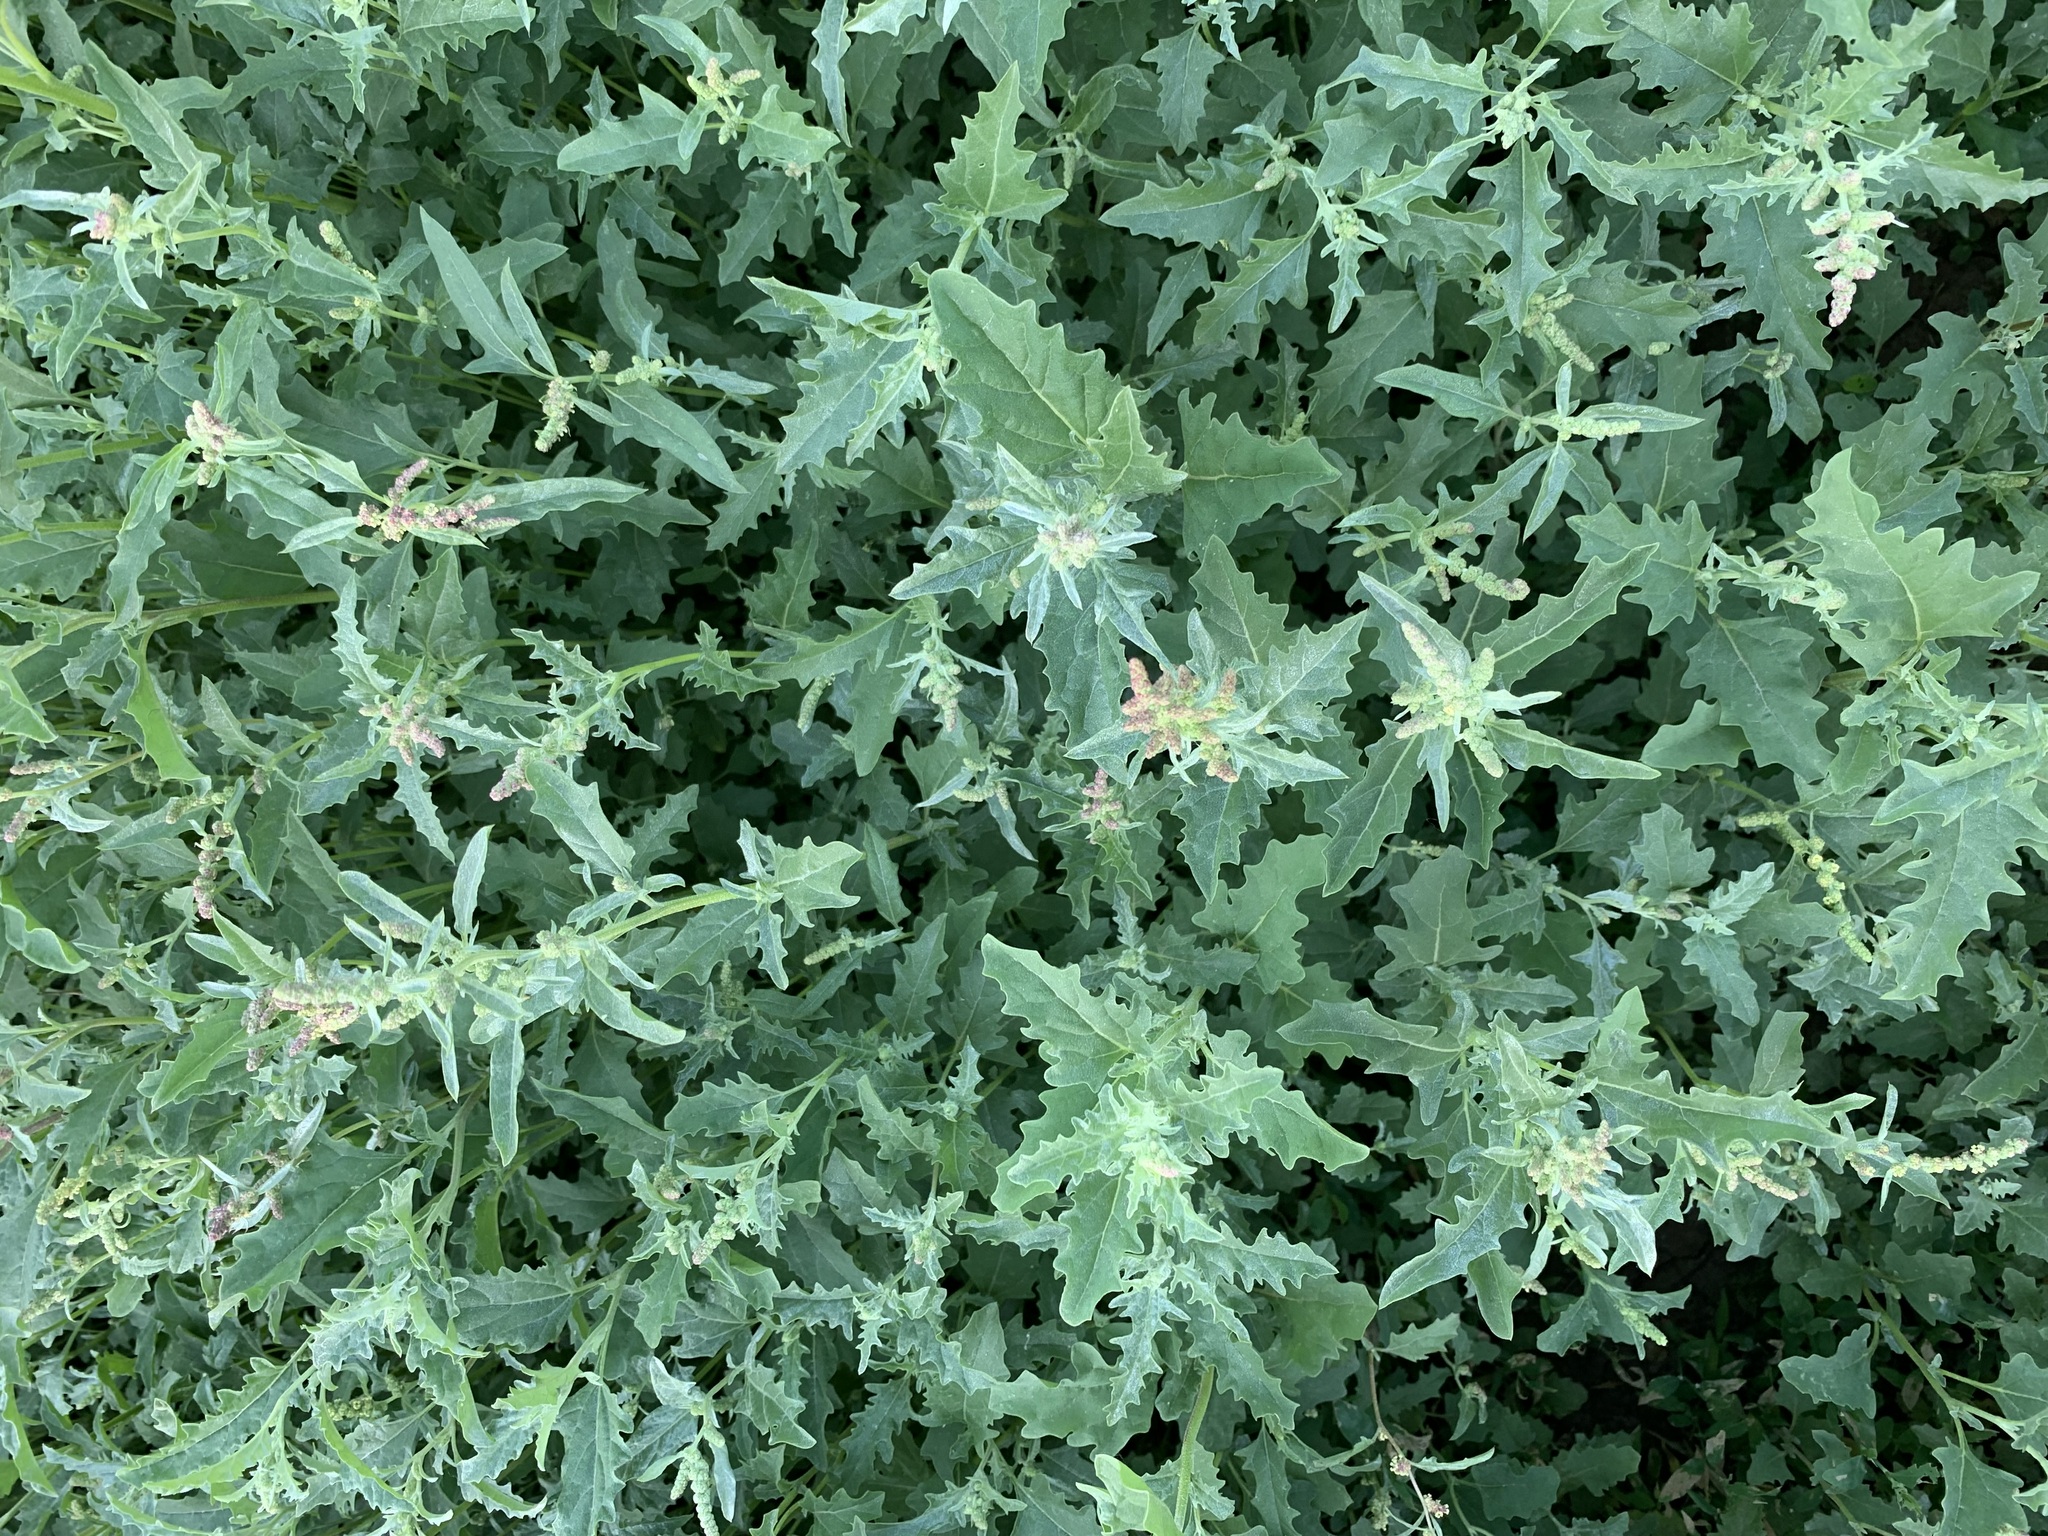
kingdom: Plantae
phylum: Tracheophyta
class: Magnoliopsida
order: Caryophyllales
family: Amaranthaceae
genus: Atriplex
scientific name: Atriplex tatarica
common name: Tatarian orache
